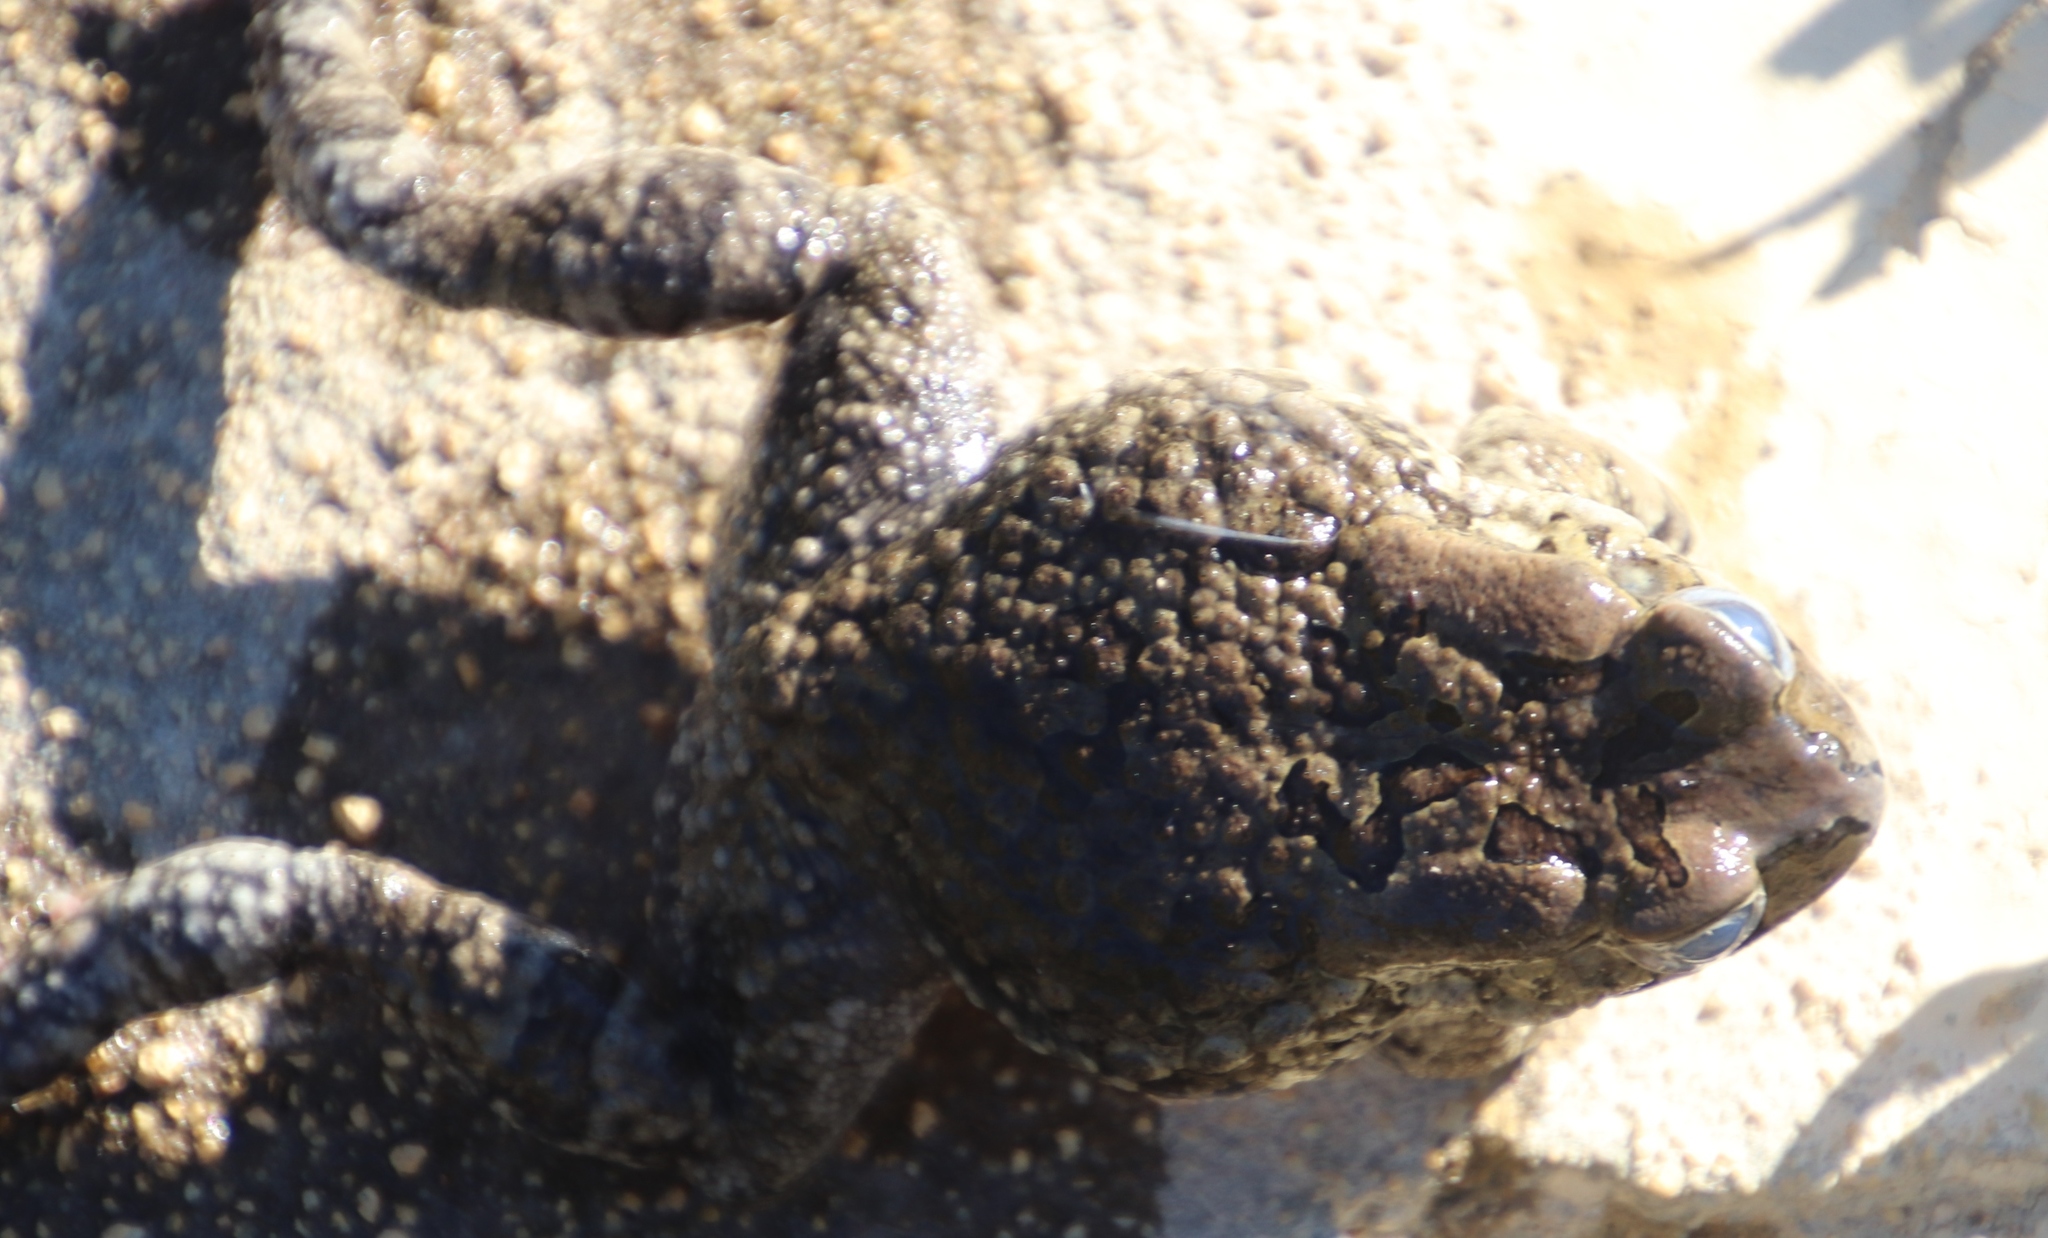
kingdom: Animalia
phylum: Chordata
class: Amphibia
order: Anura
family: Bufonidae
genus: Sclerophrys
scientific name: Sclerophrys capensis
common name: Ranger’s toad
